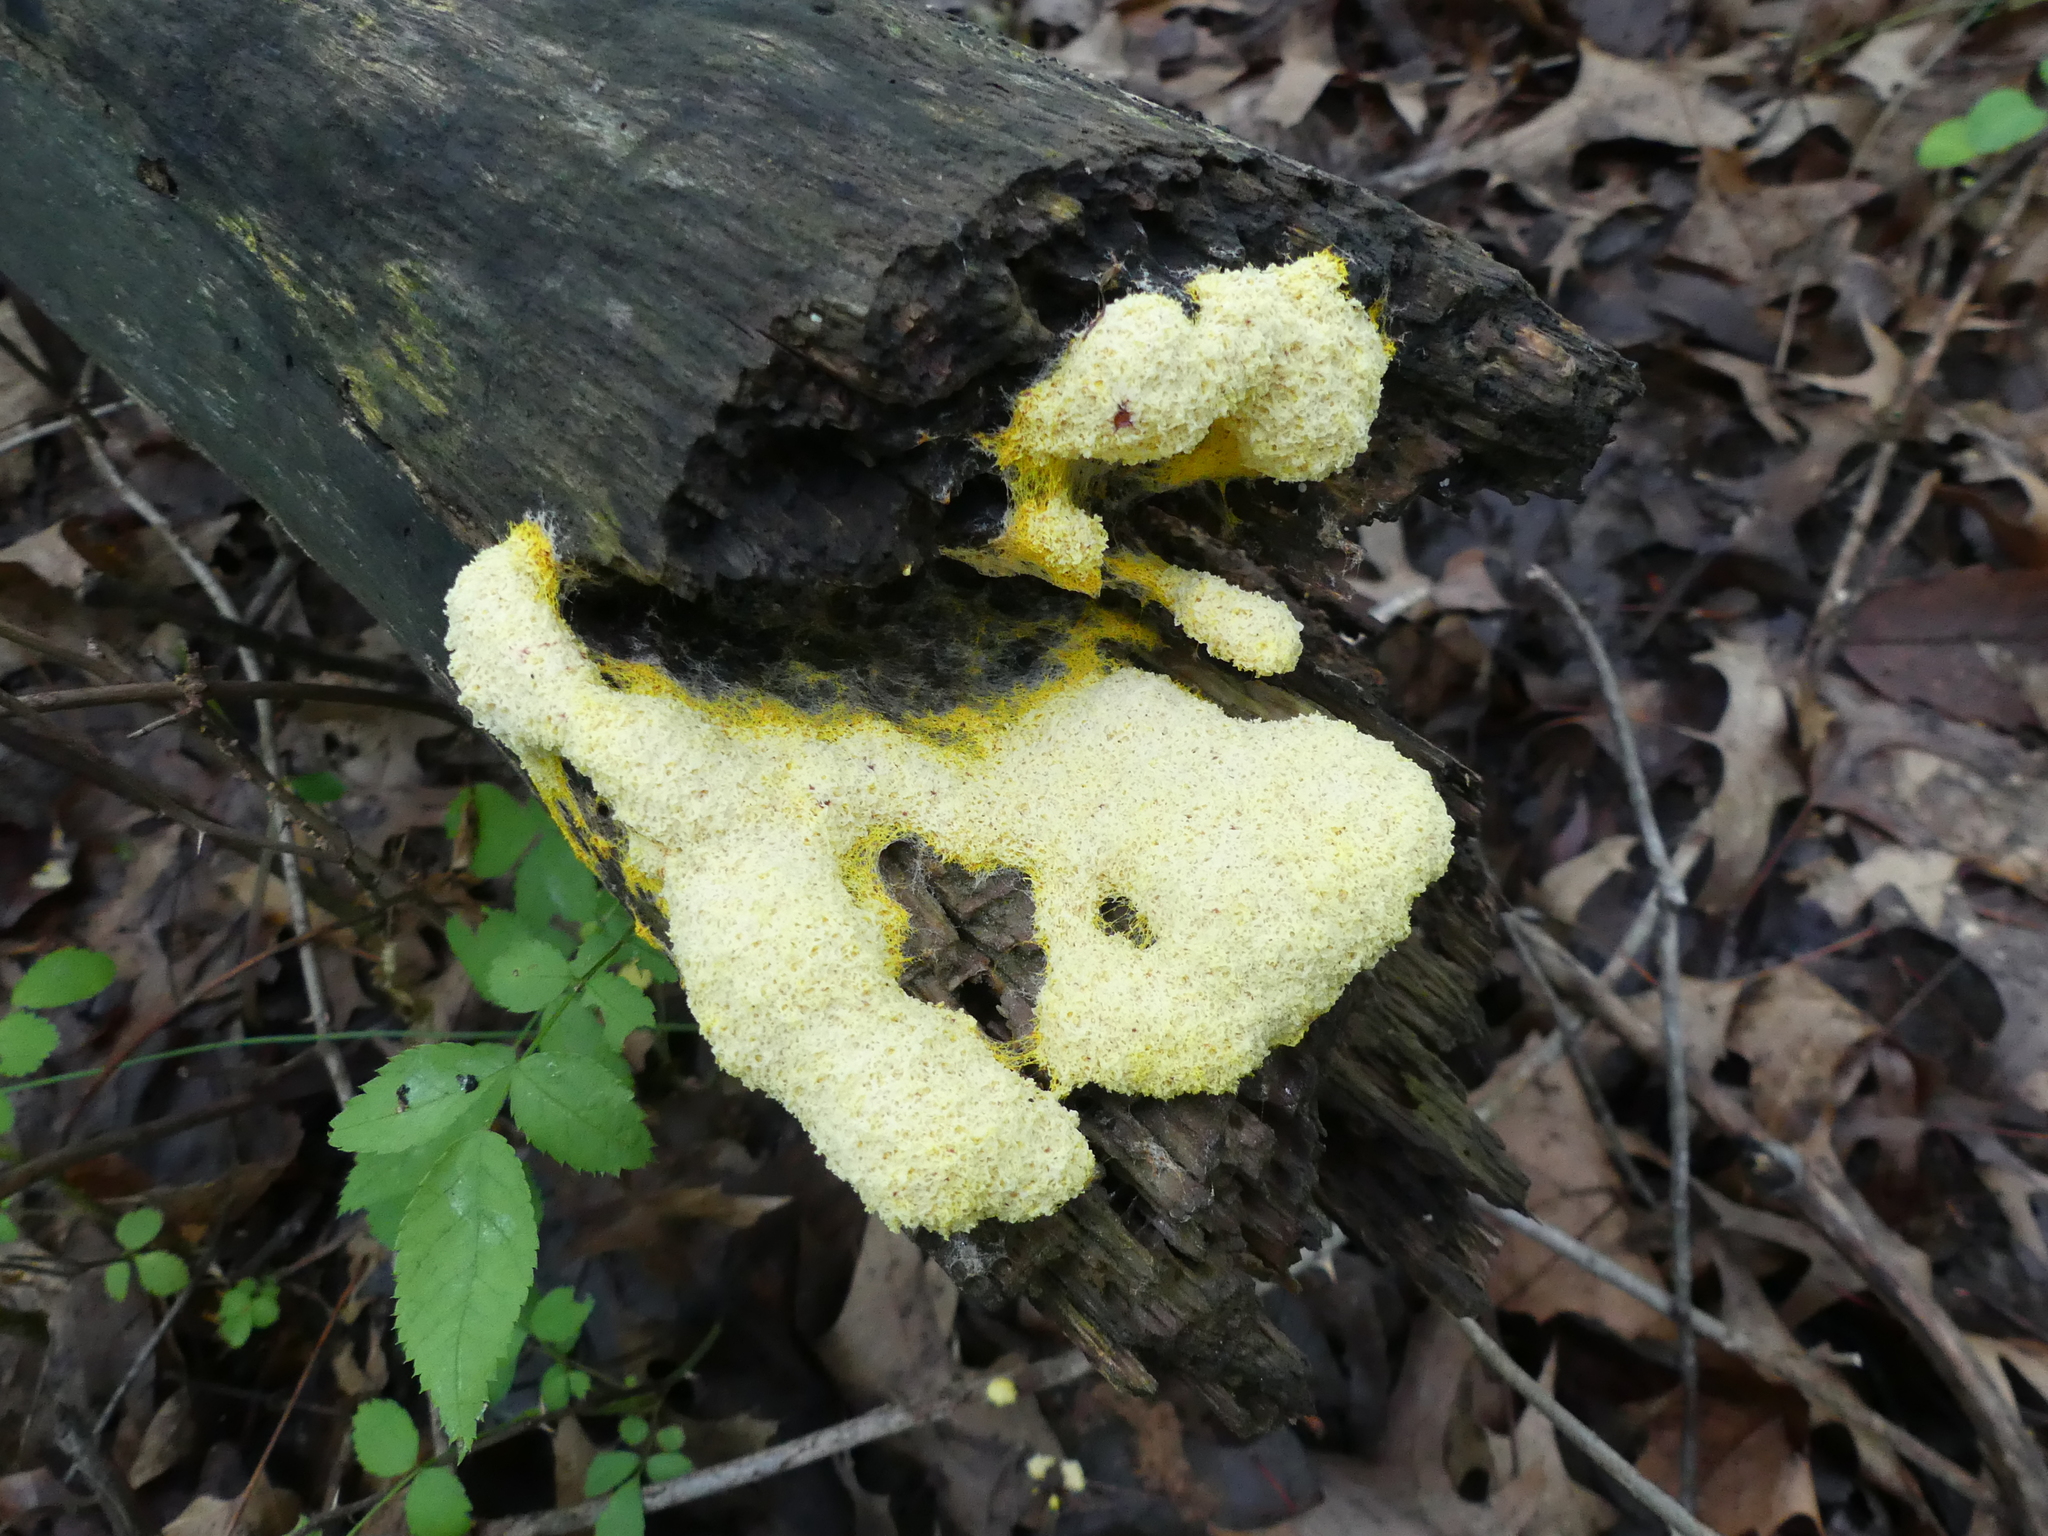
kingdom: Protozoa
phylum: Mycetozoa
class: Myxomycetes
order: Physarales
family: Physaraceae
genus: Fuligo
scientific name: Fuligo septica
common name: Dog vomit slime mold
